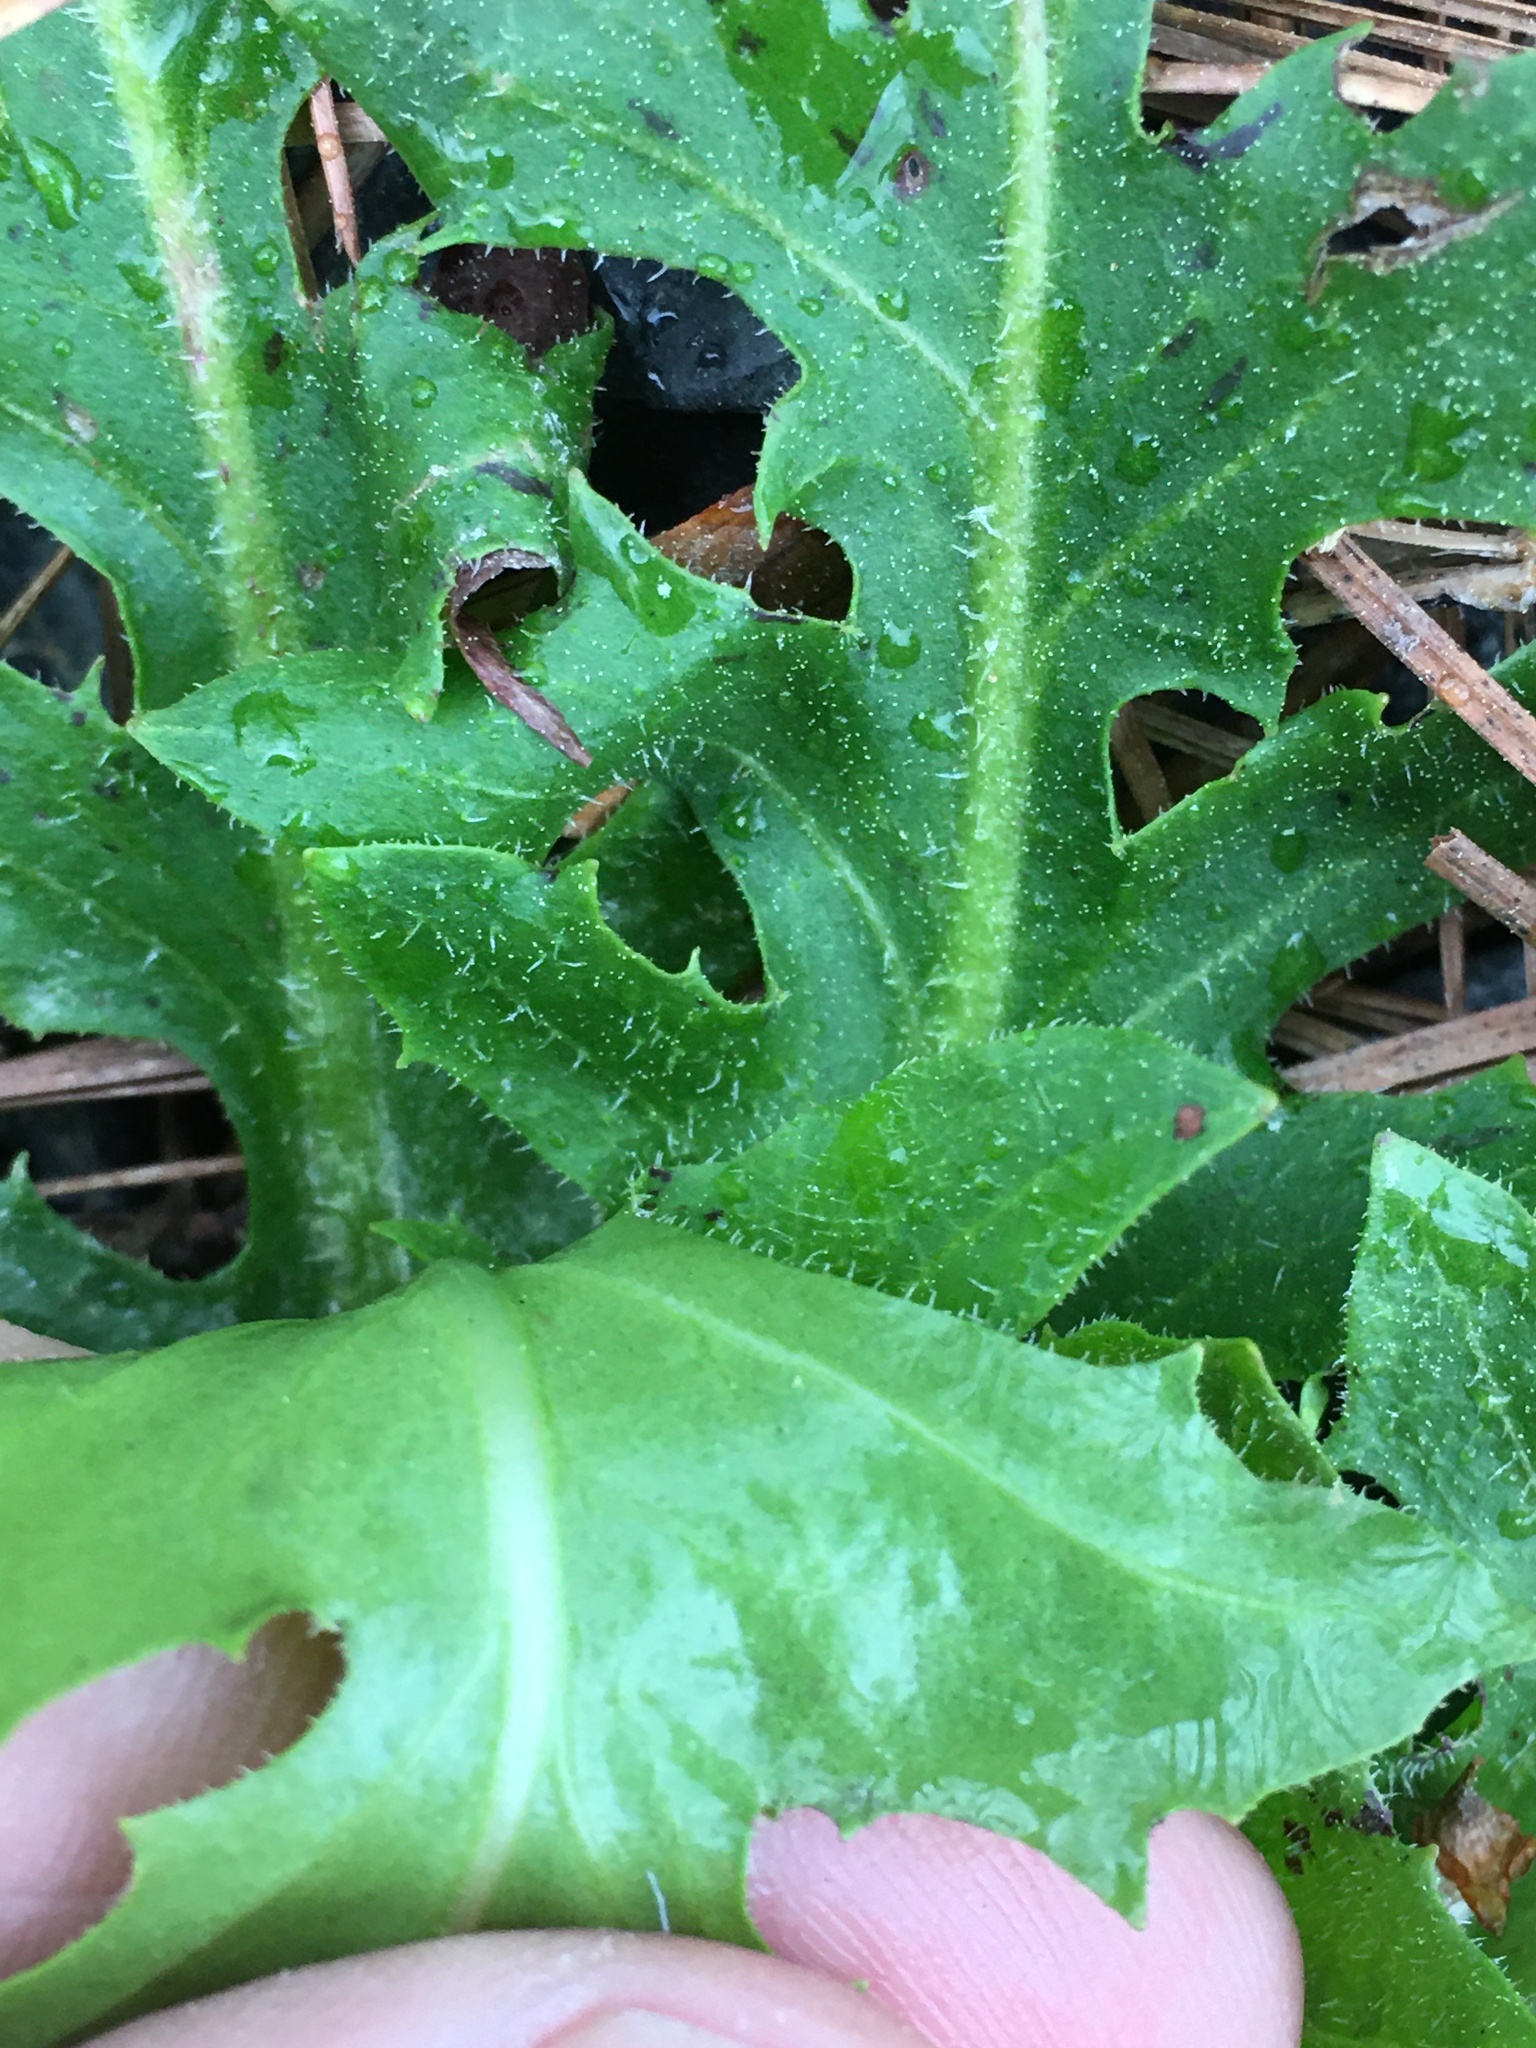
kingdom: Plantae
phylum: Tracheophyta
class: Magnoliopsida
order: Asterales
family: Asteraceae
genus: Hypochaeris
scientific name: Hypochaeris chillensis
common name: Brazilian cat's ear
